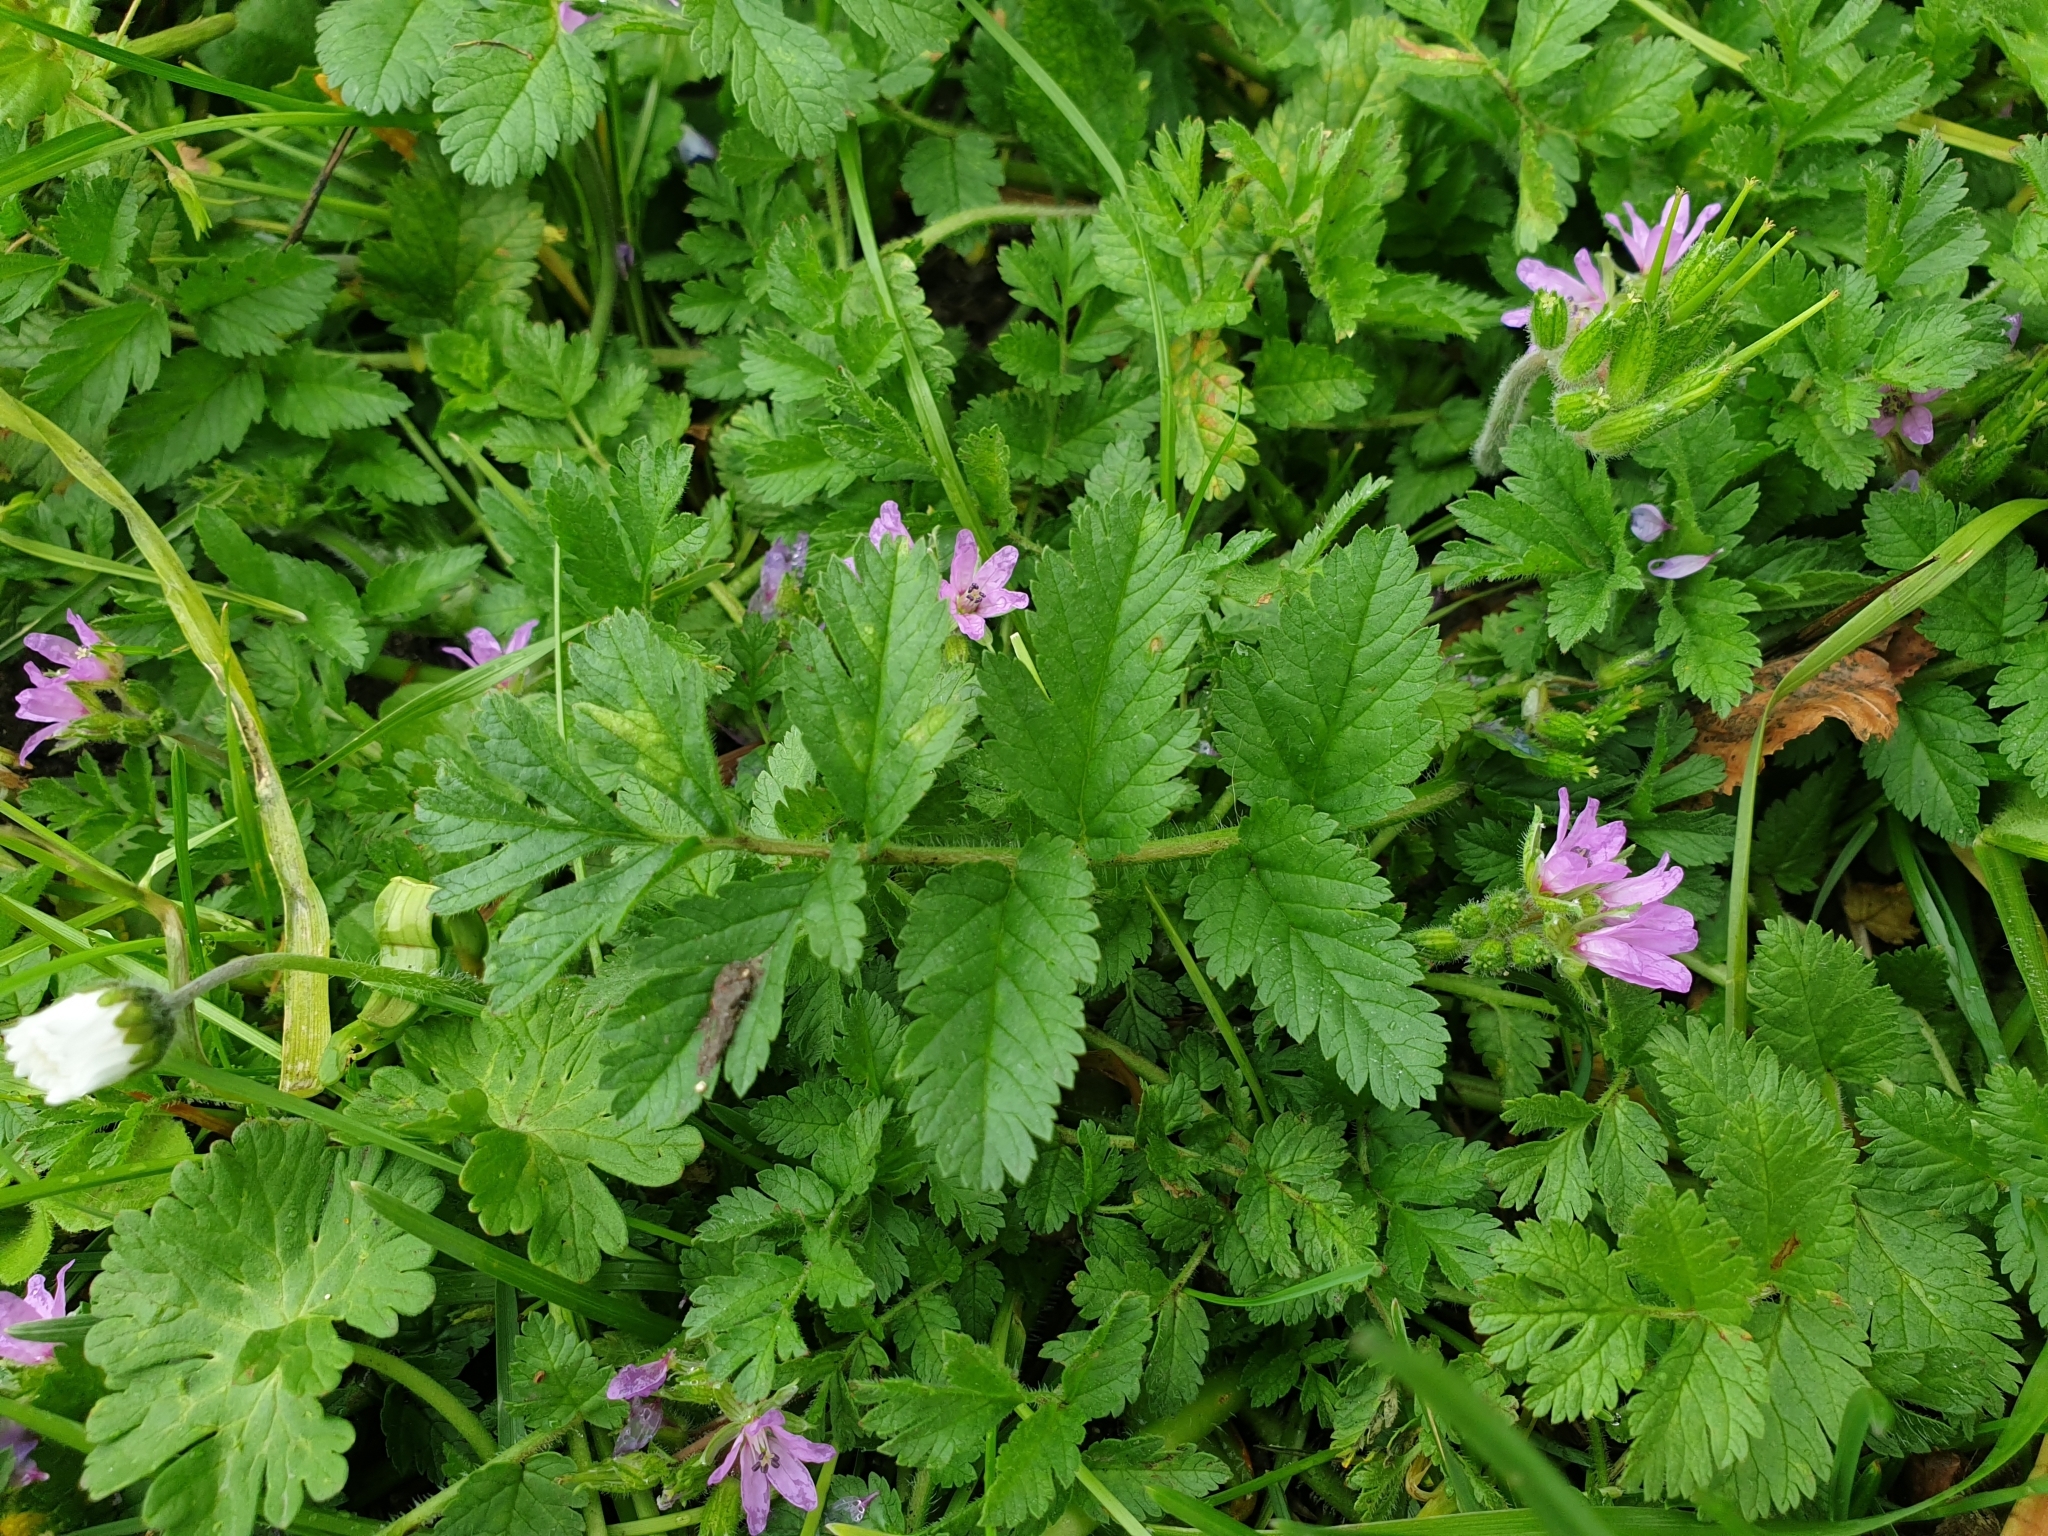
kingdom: Plantae
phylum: Tracheophyta
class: Magnoliopsida
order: Geraniales
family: Geraniaceae
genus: Erodium
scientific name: Erodium moschatum
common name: Musk stork's-bill
